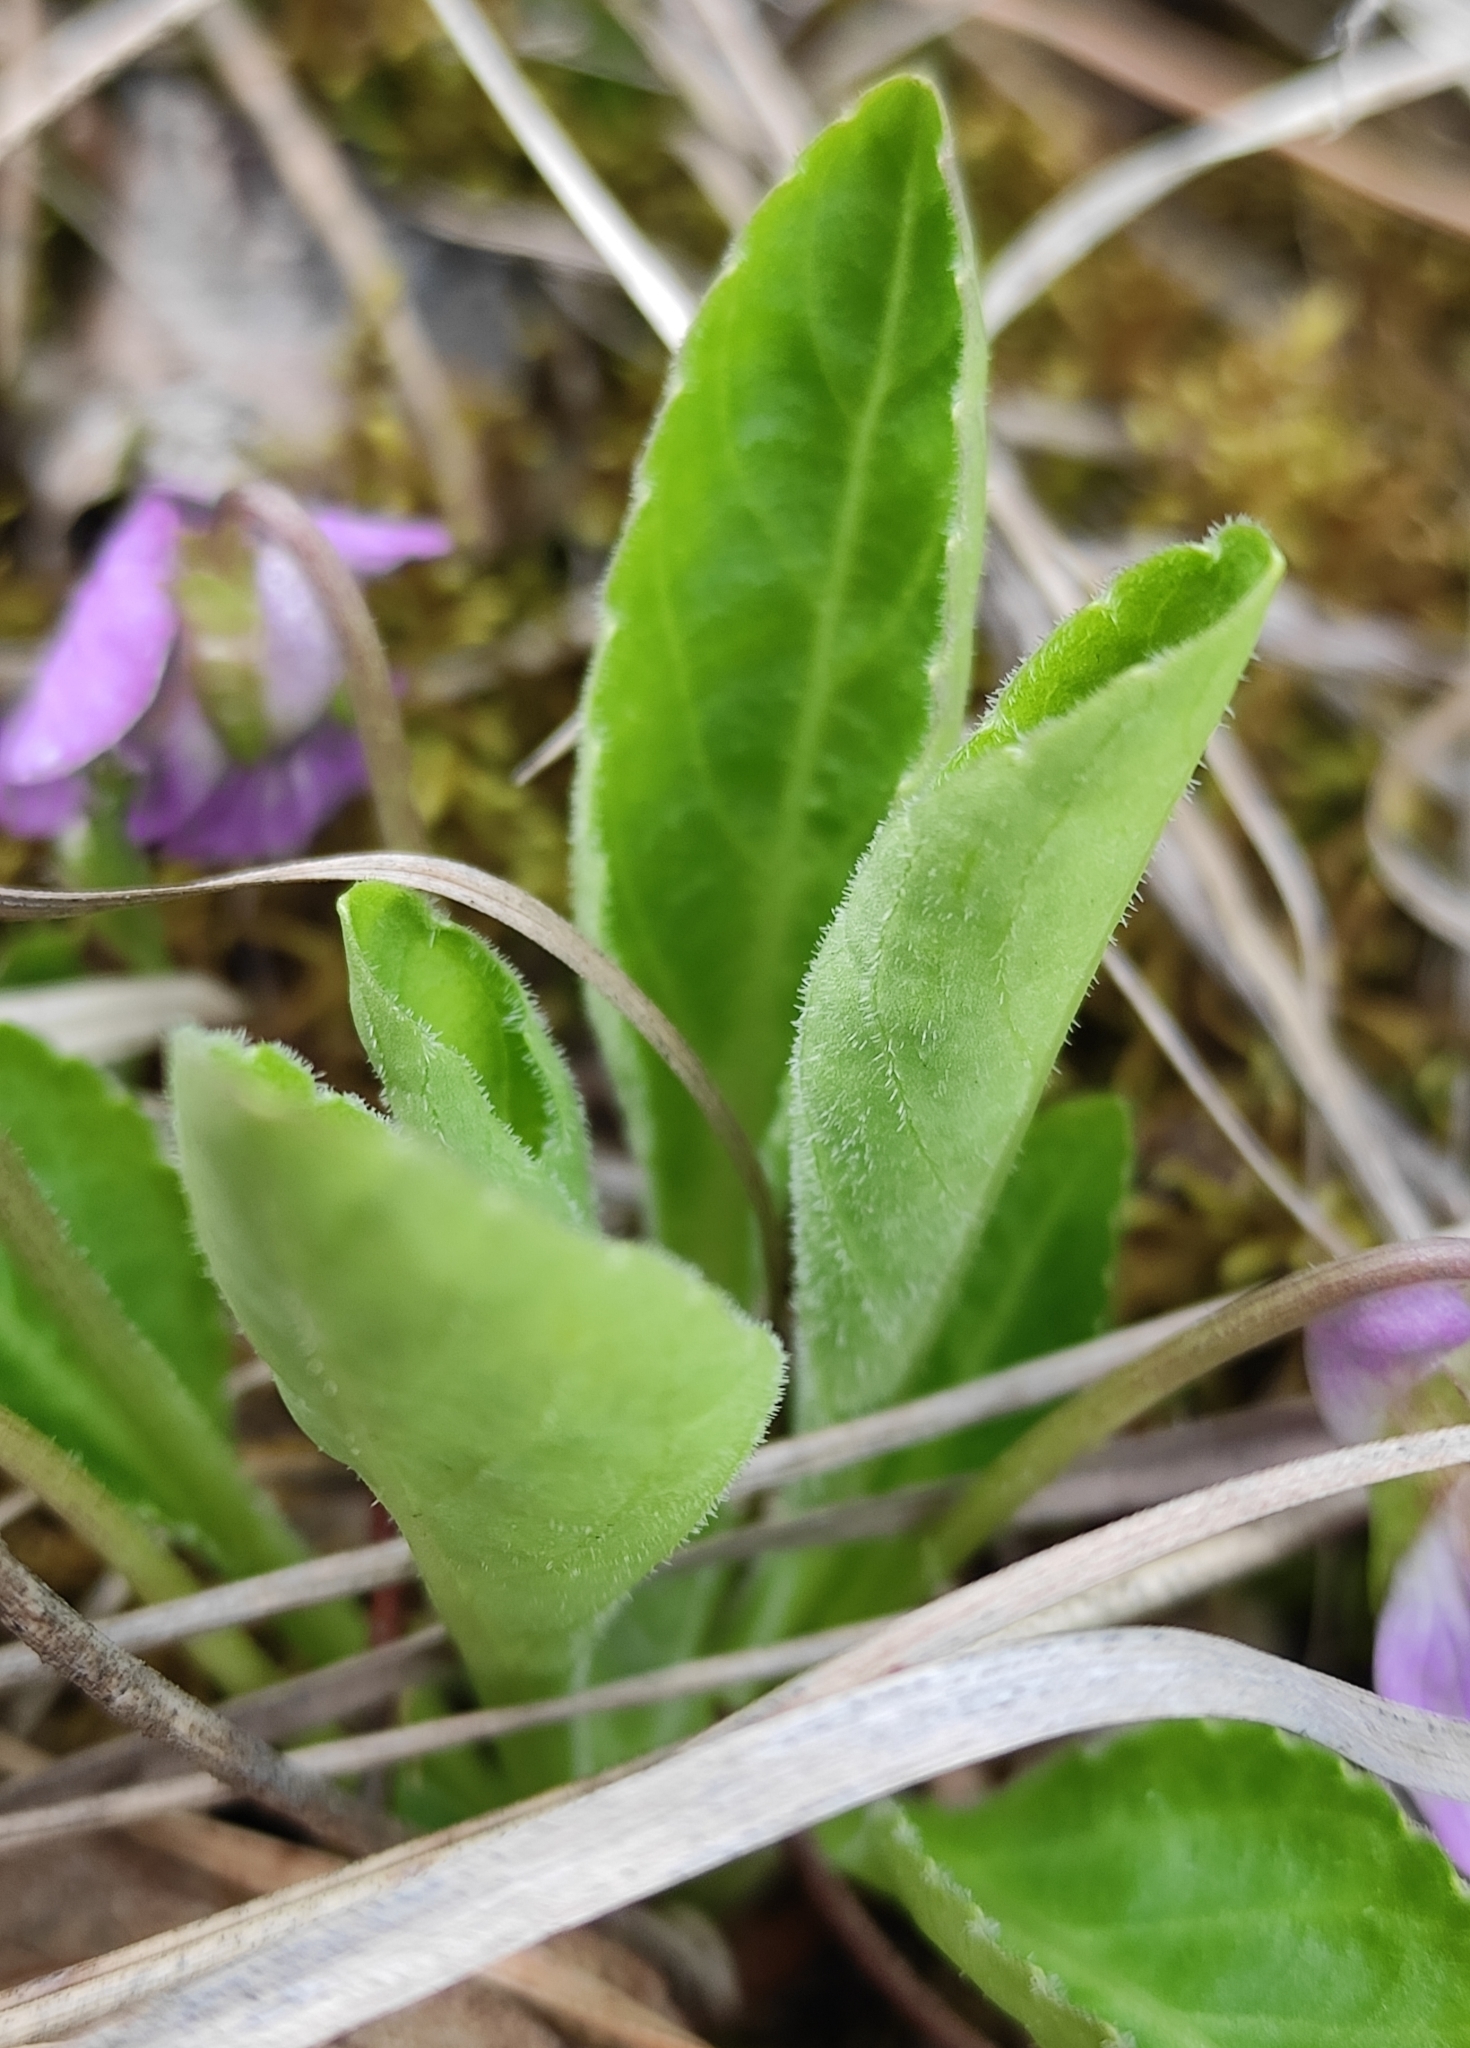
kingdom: Plantae
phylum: Tracheophyta
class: Magnoliopsida
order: Malpighiales
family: Violaceae
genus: Viola
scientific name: Viola gmeliniana
